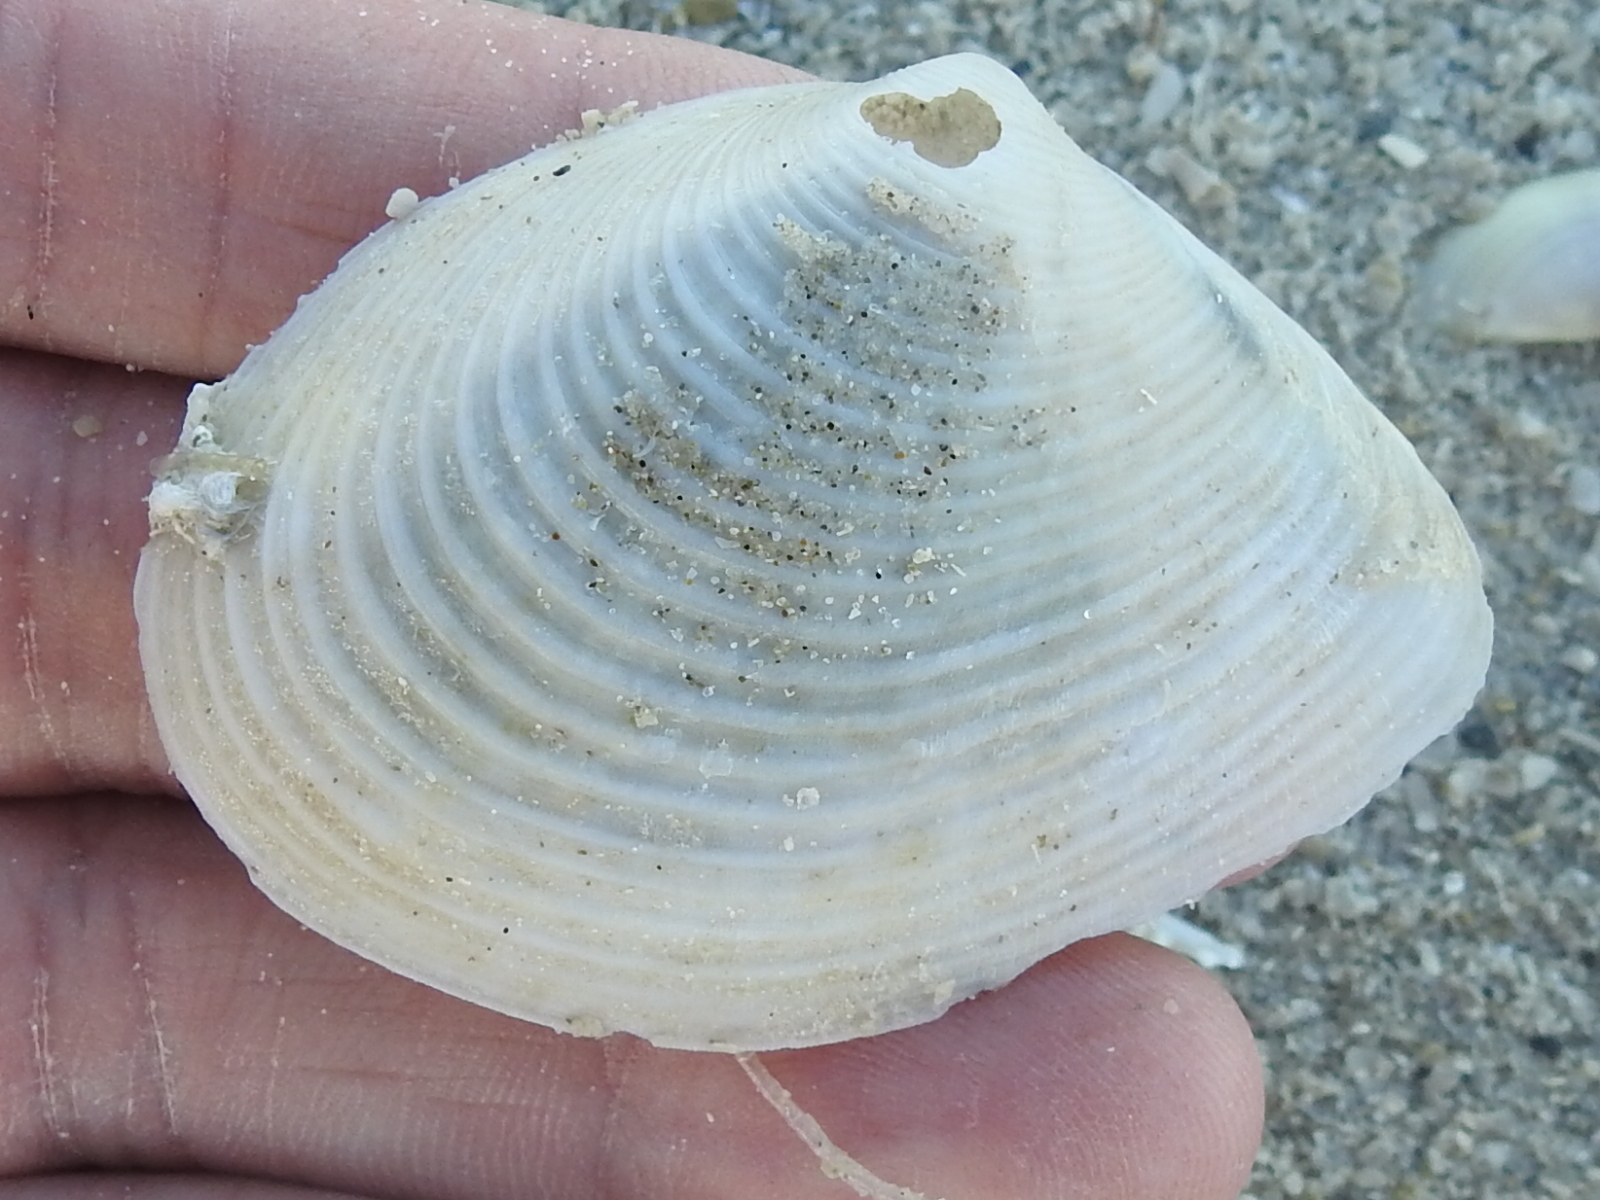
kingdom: Animalia
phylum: Mollusca
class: Bivalvia
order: Venerida
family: Anatinellidae
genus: Raeta
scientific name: Raeta plicatella
